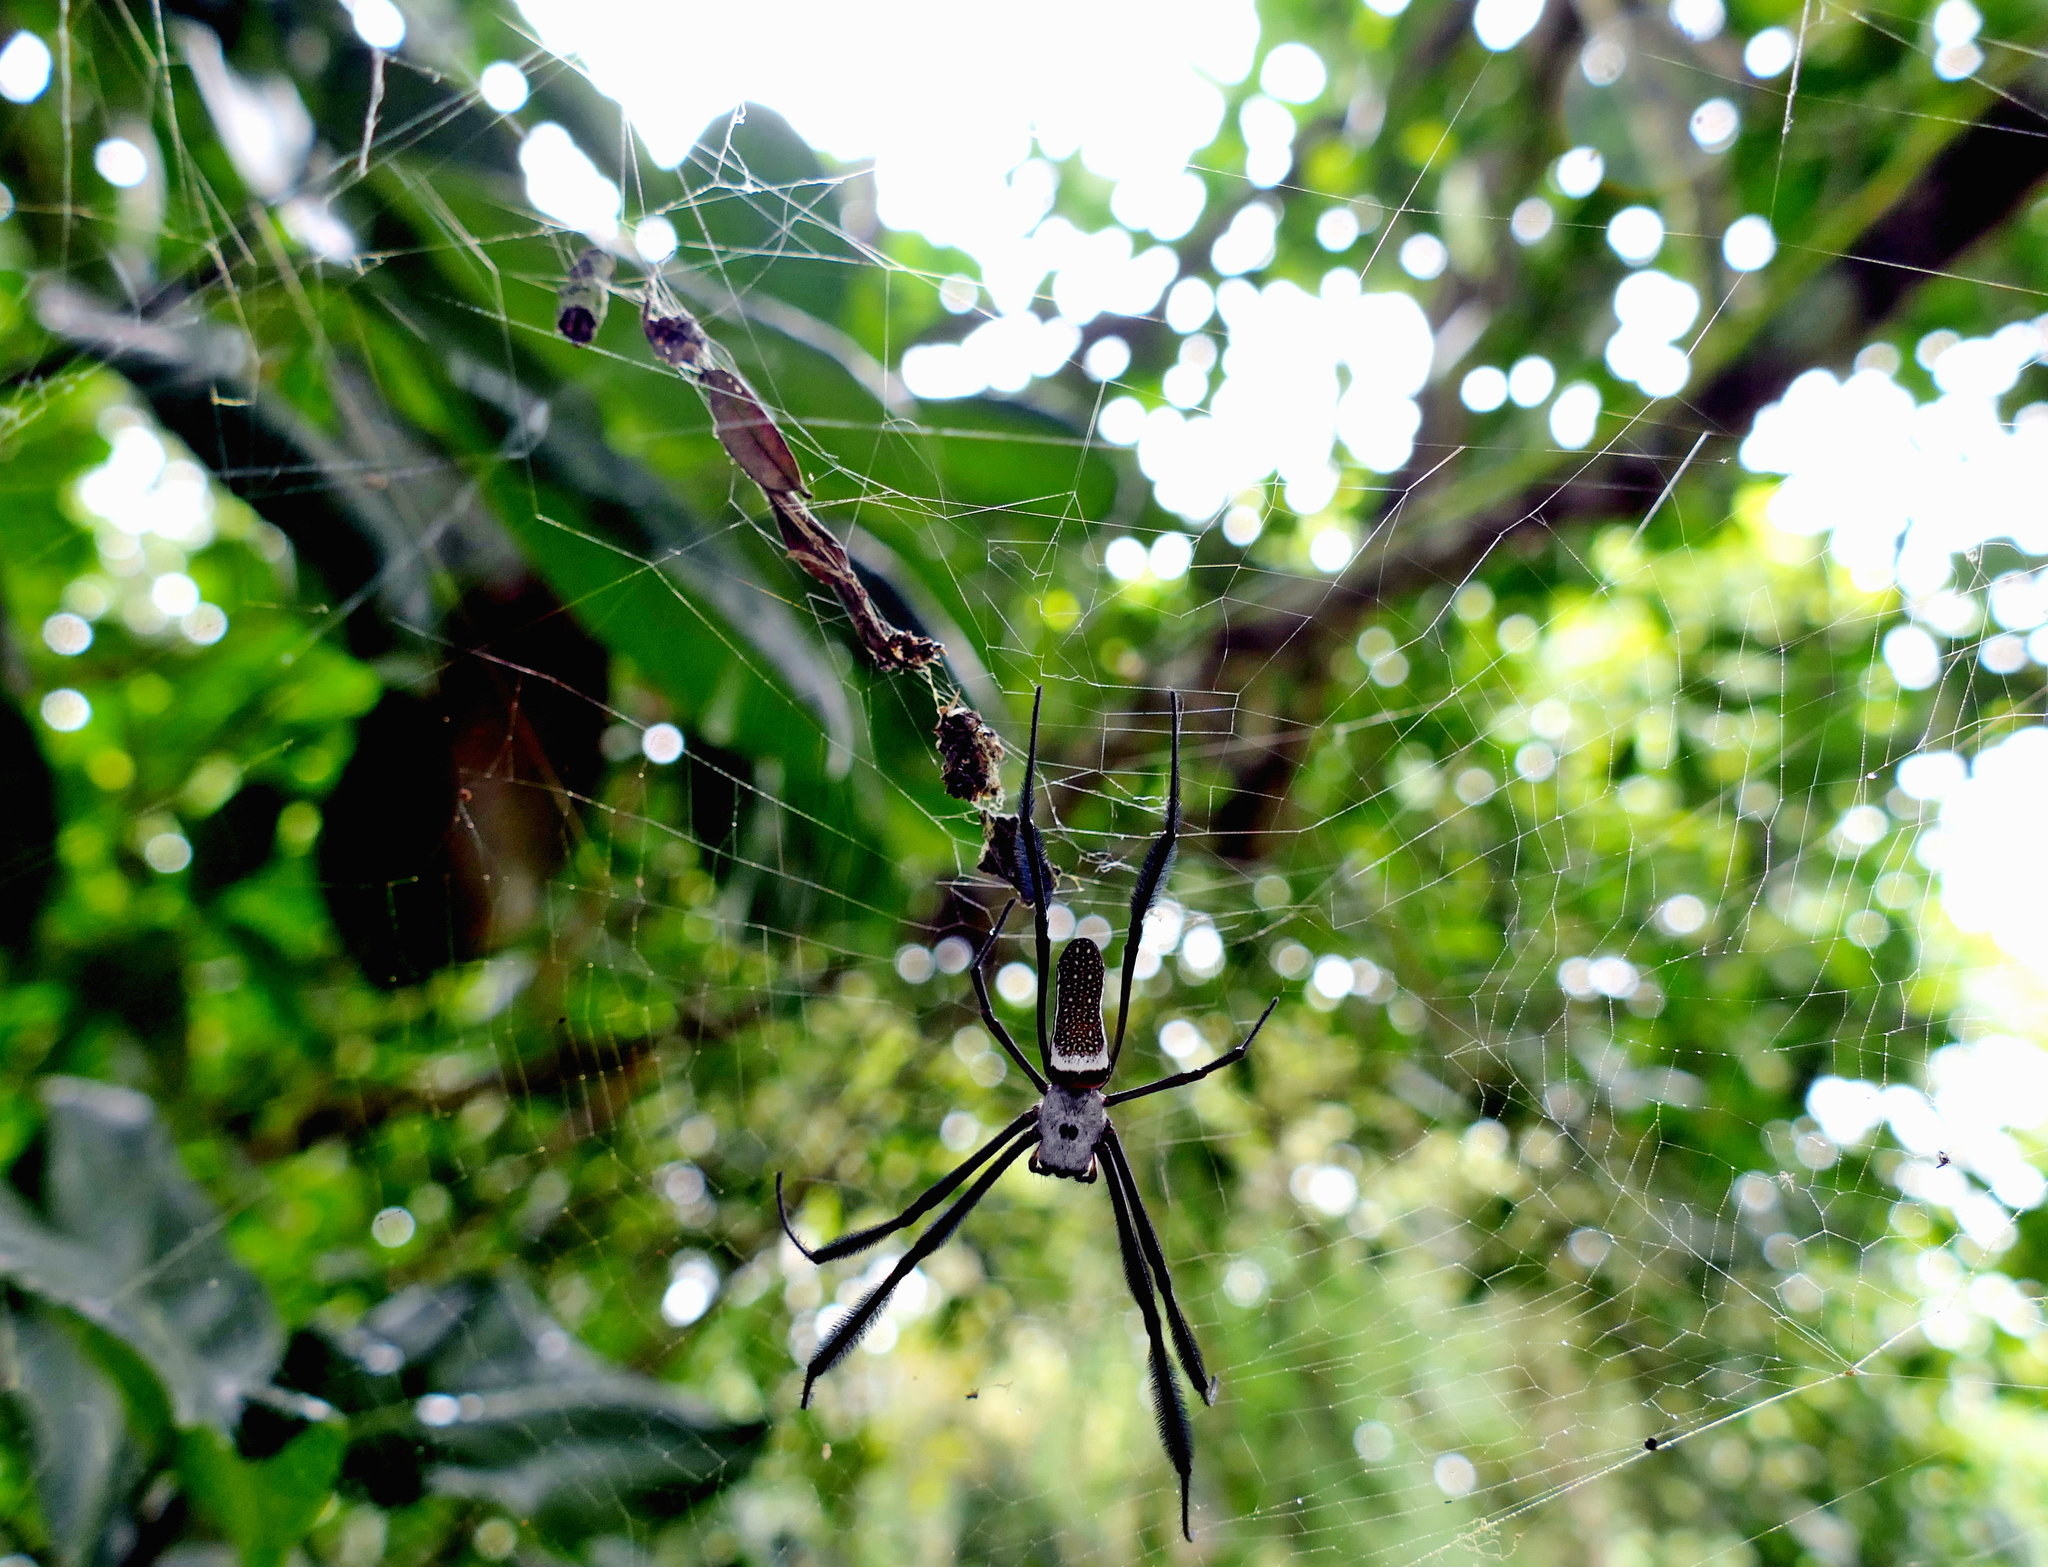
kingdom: Animalia
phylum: Arthropoda
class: Arachnida
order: Araneae
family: Araneidae
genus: Trichonephila
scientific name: Trichonephila clavipes
